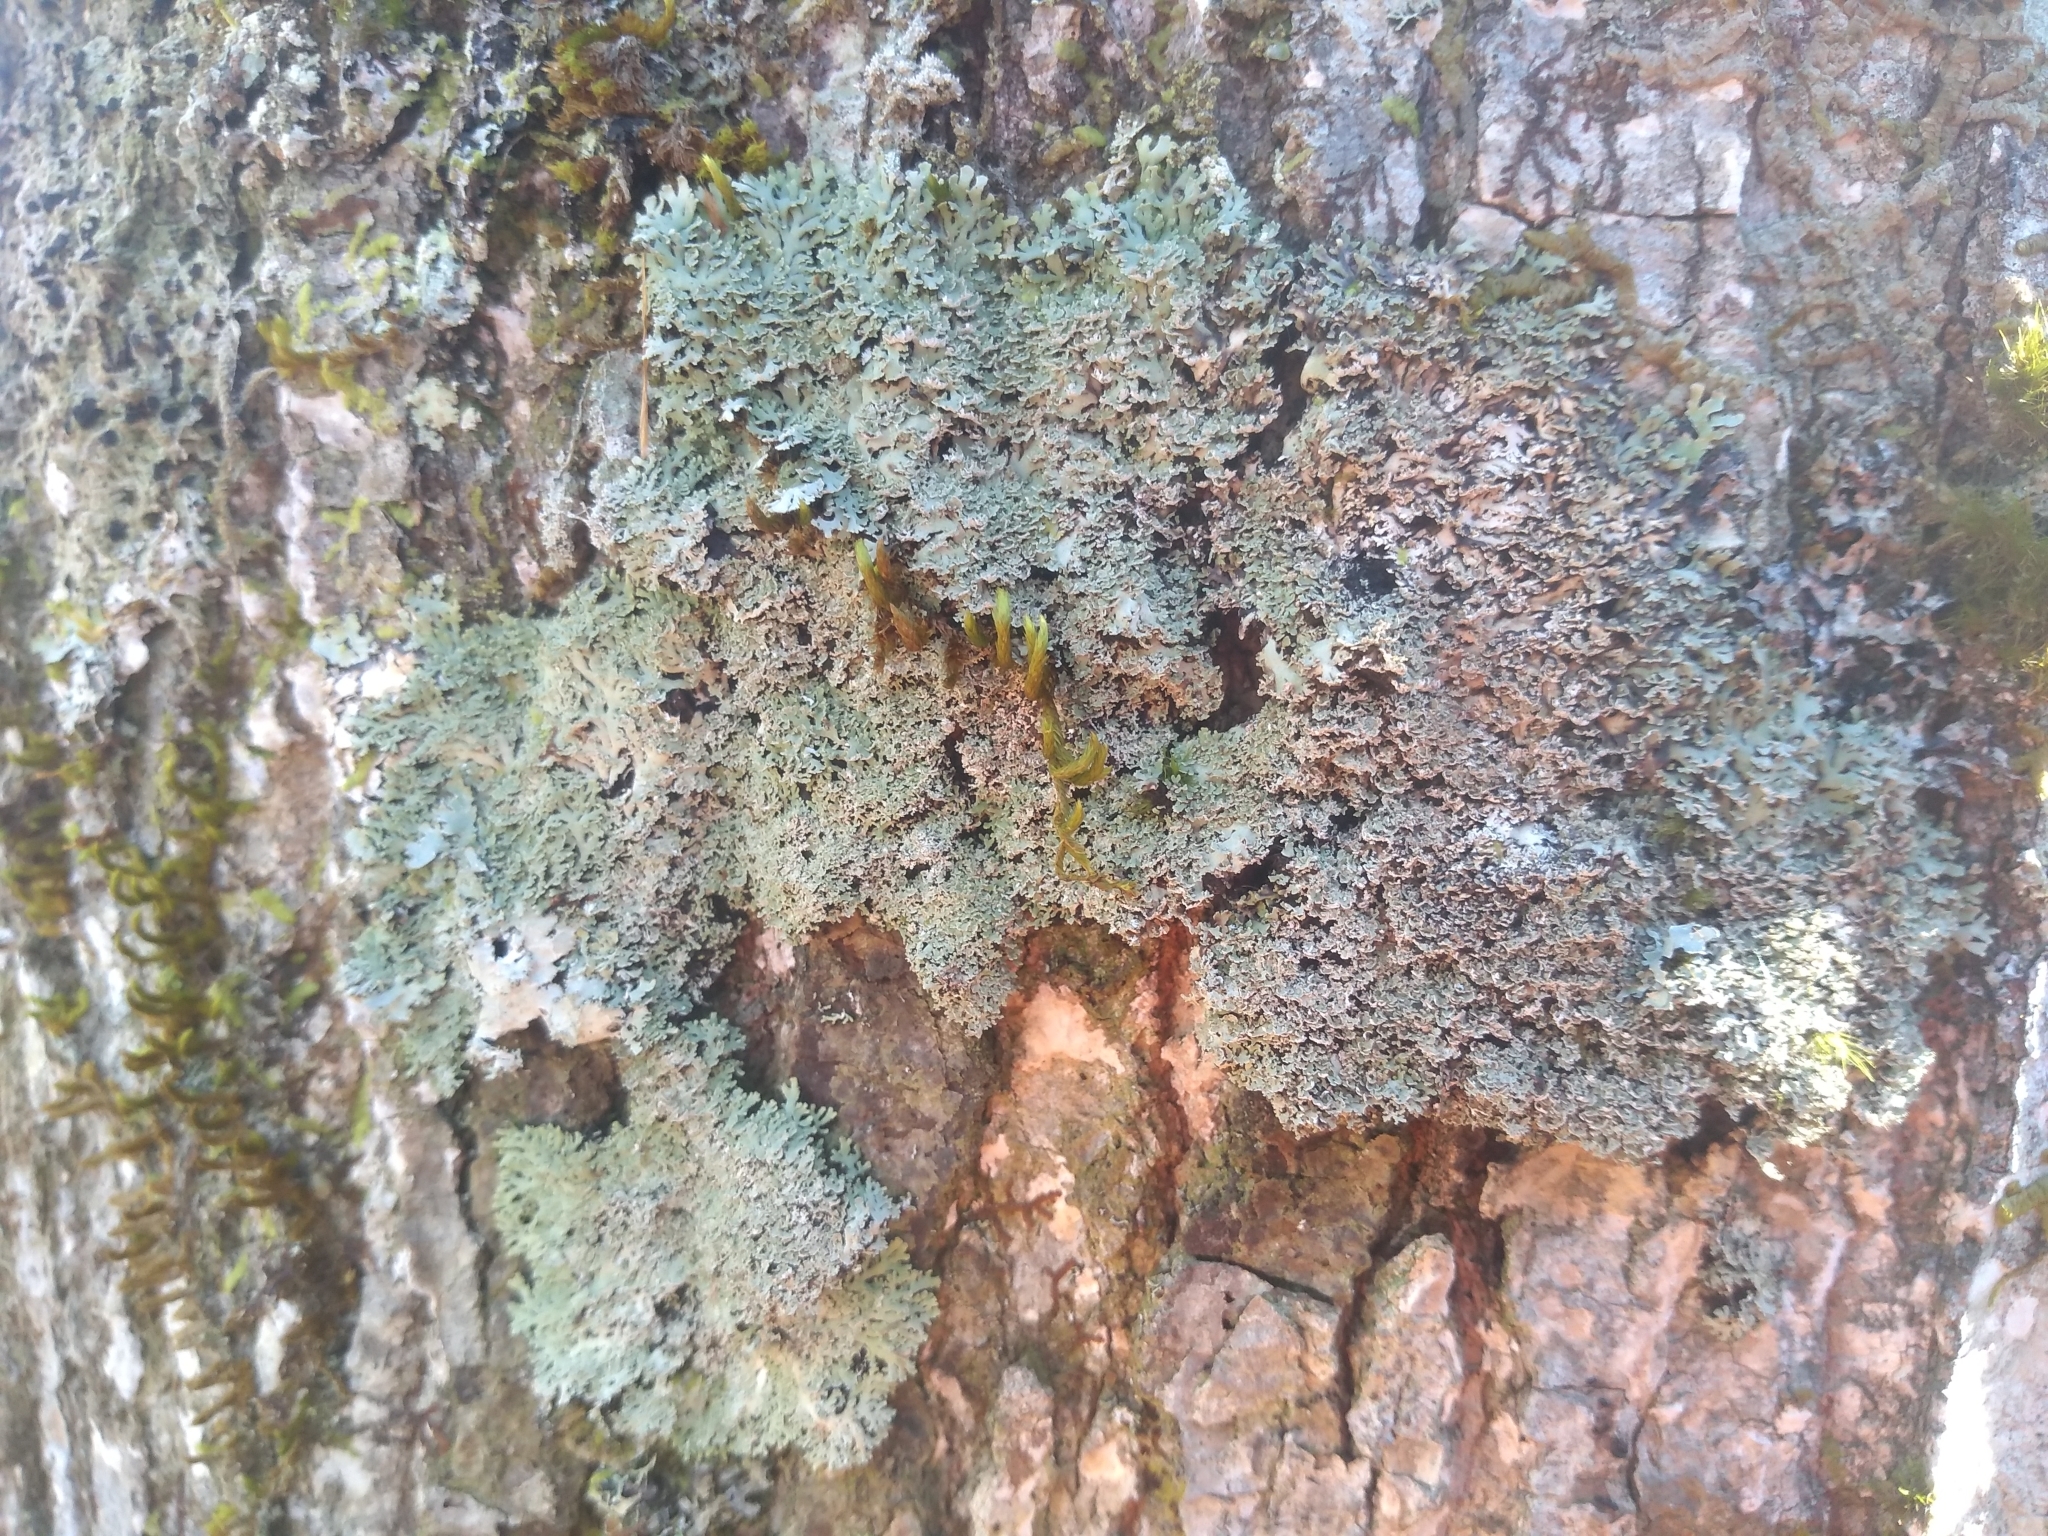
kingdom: Fungi
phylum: Ascomycota
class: Lecanoromycetes
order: Caliciales
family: Physciaceae
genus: Polyblastidium
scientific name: Polyblastidium squamulosum
